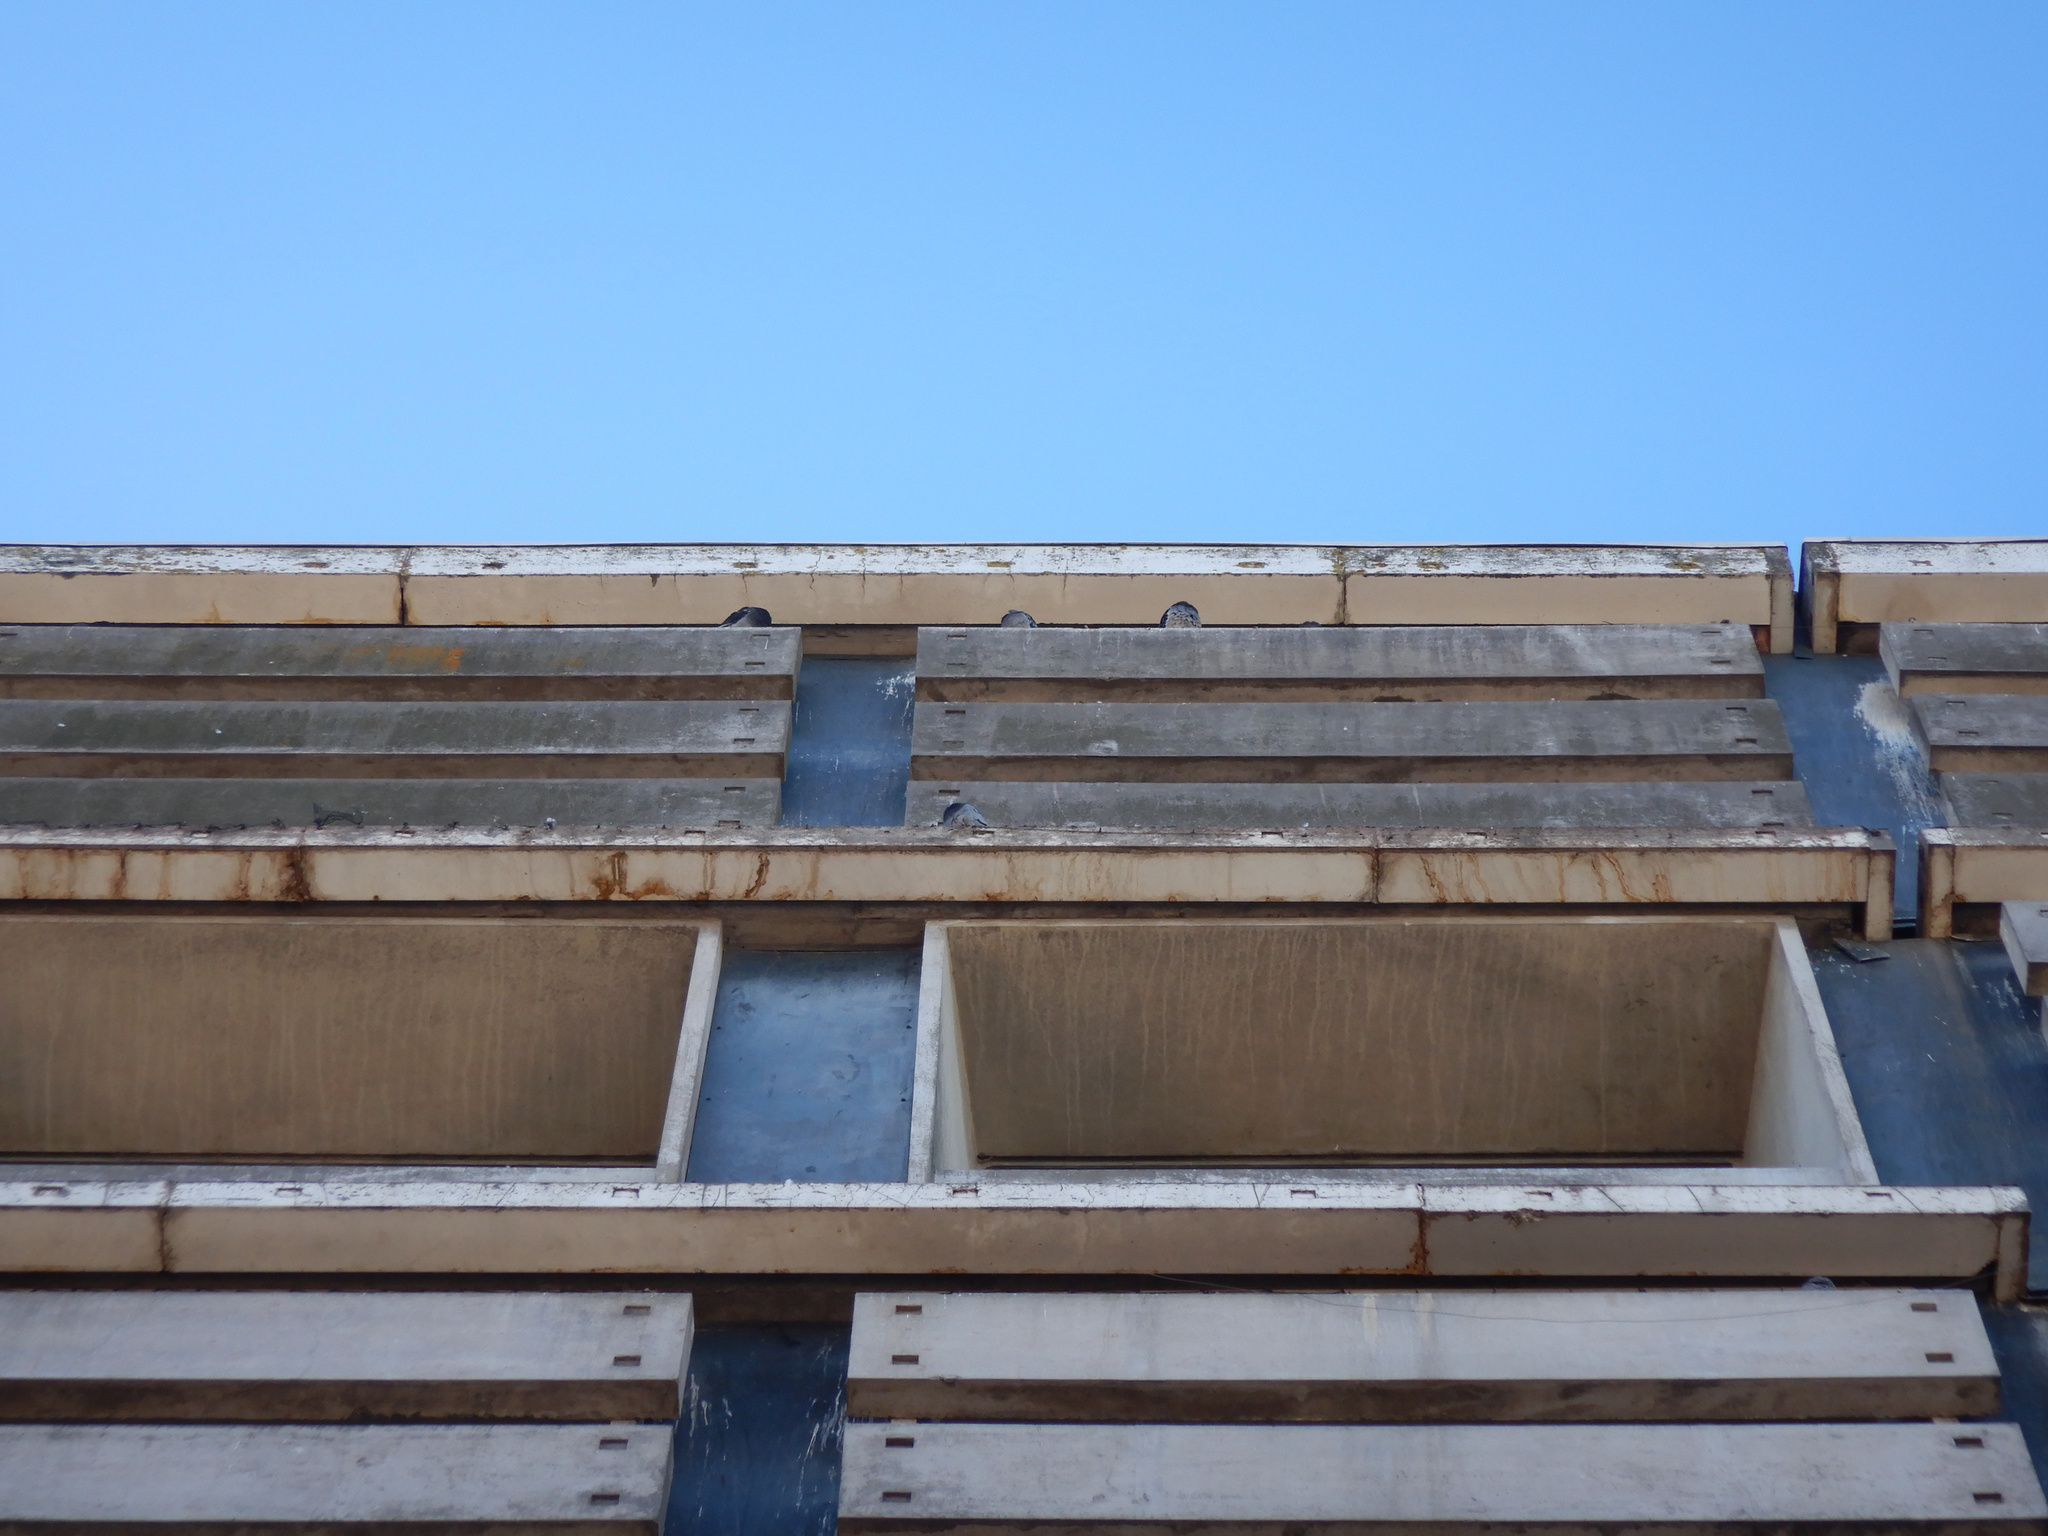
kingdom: Animalia
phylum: Chordata
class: Aves
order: Columbiformes
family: Columbidae
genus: Columba
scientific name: Columba livia
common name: Rock pigeon
